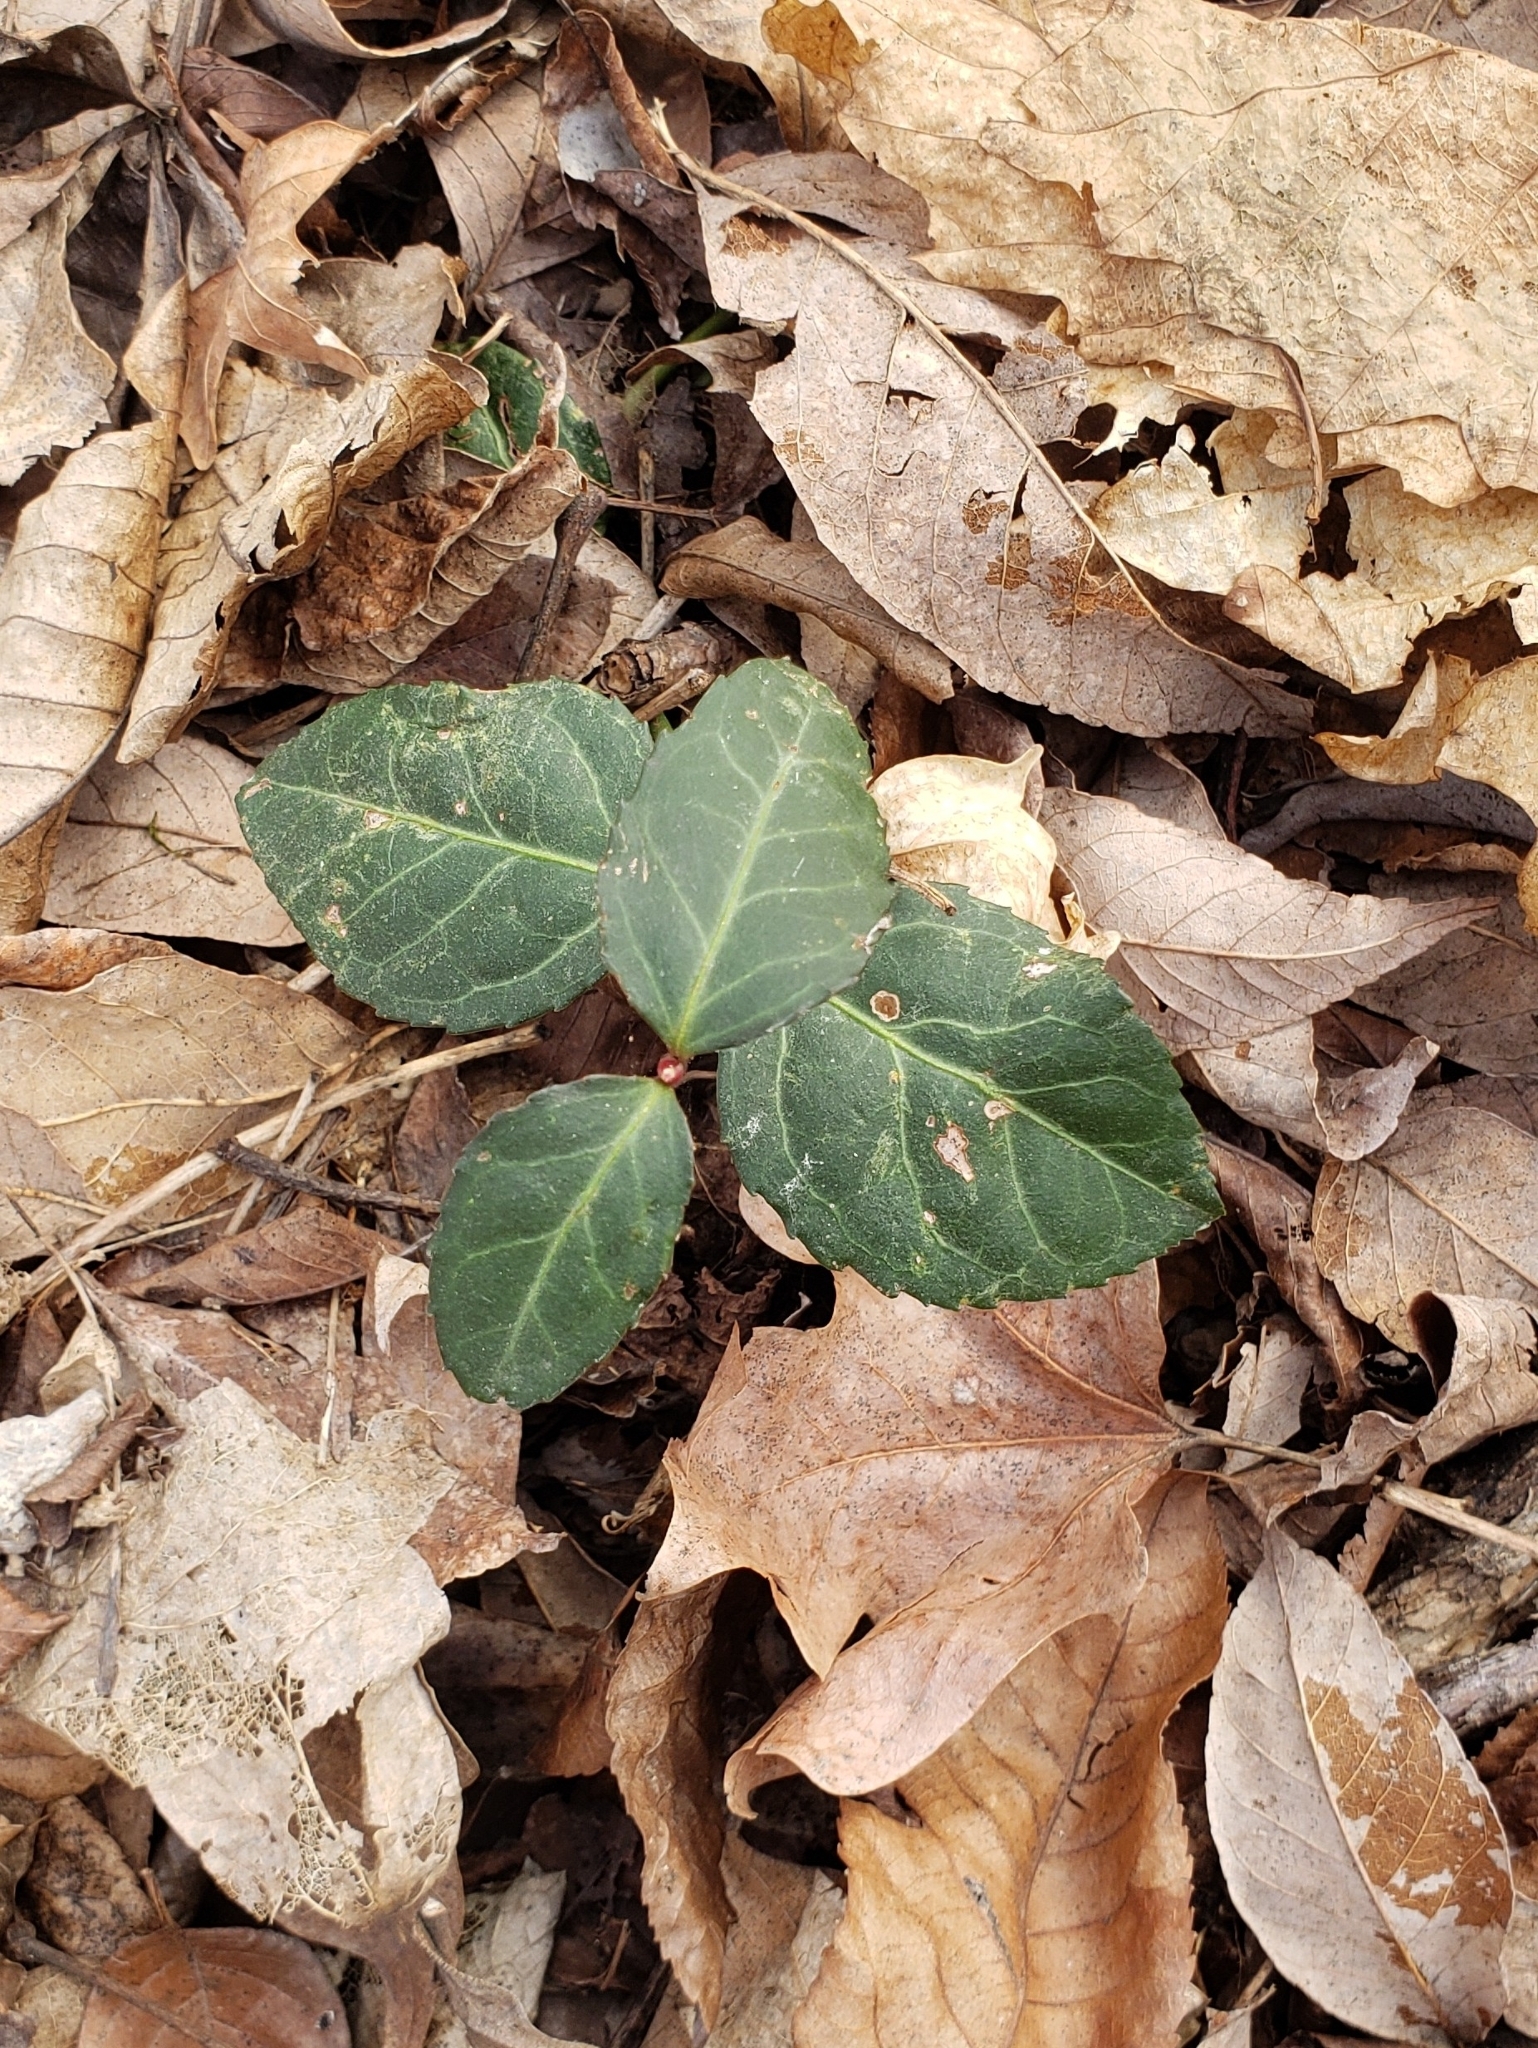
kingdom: Plantae
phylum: Tracheophyta
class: Magnoliopsida
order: Celastrales
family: Celastraceae
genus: Euonymus
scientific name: Euonymus fortunei
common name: Climbing euonymus
